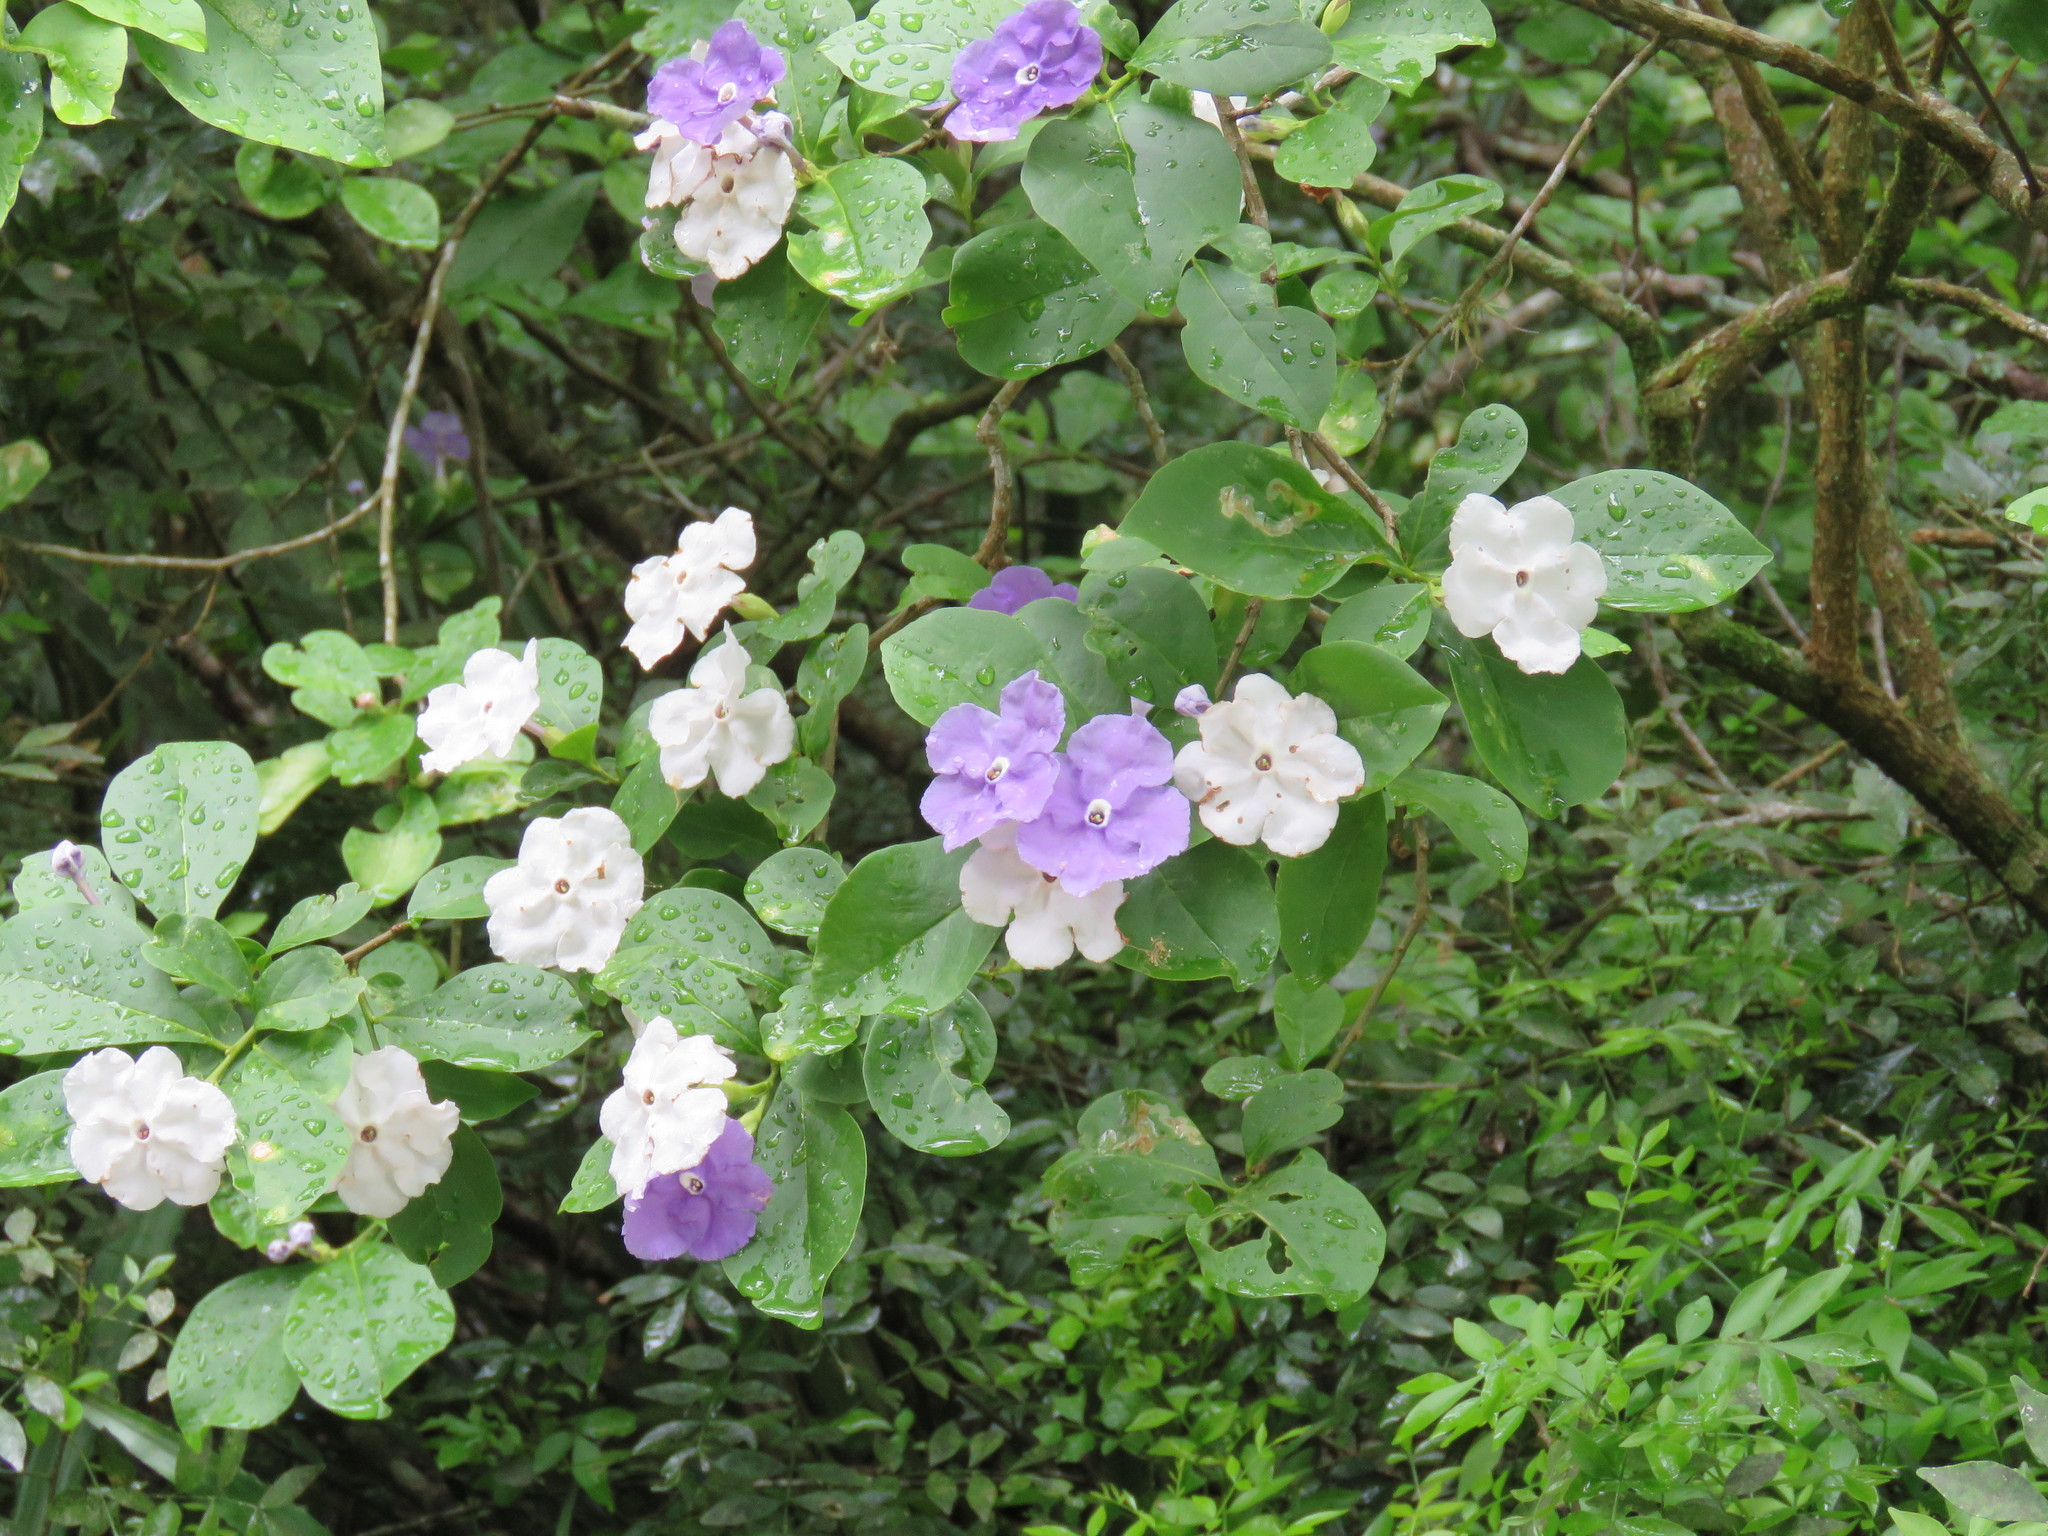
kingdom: Plantae
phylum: Tracheophyta
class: Magnoliopsida
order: Solanales
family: Solanaceae
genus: Brunfelsia
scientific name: Brunfelsia australis
